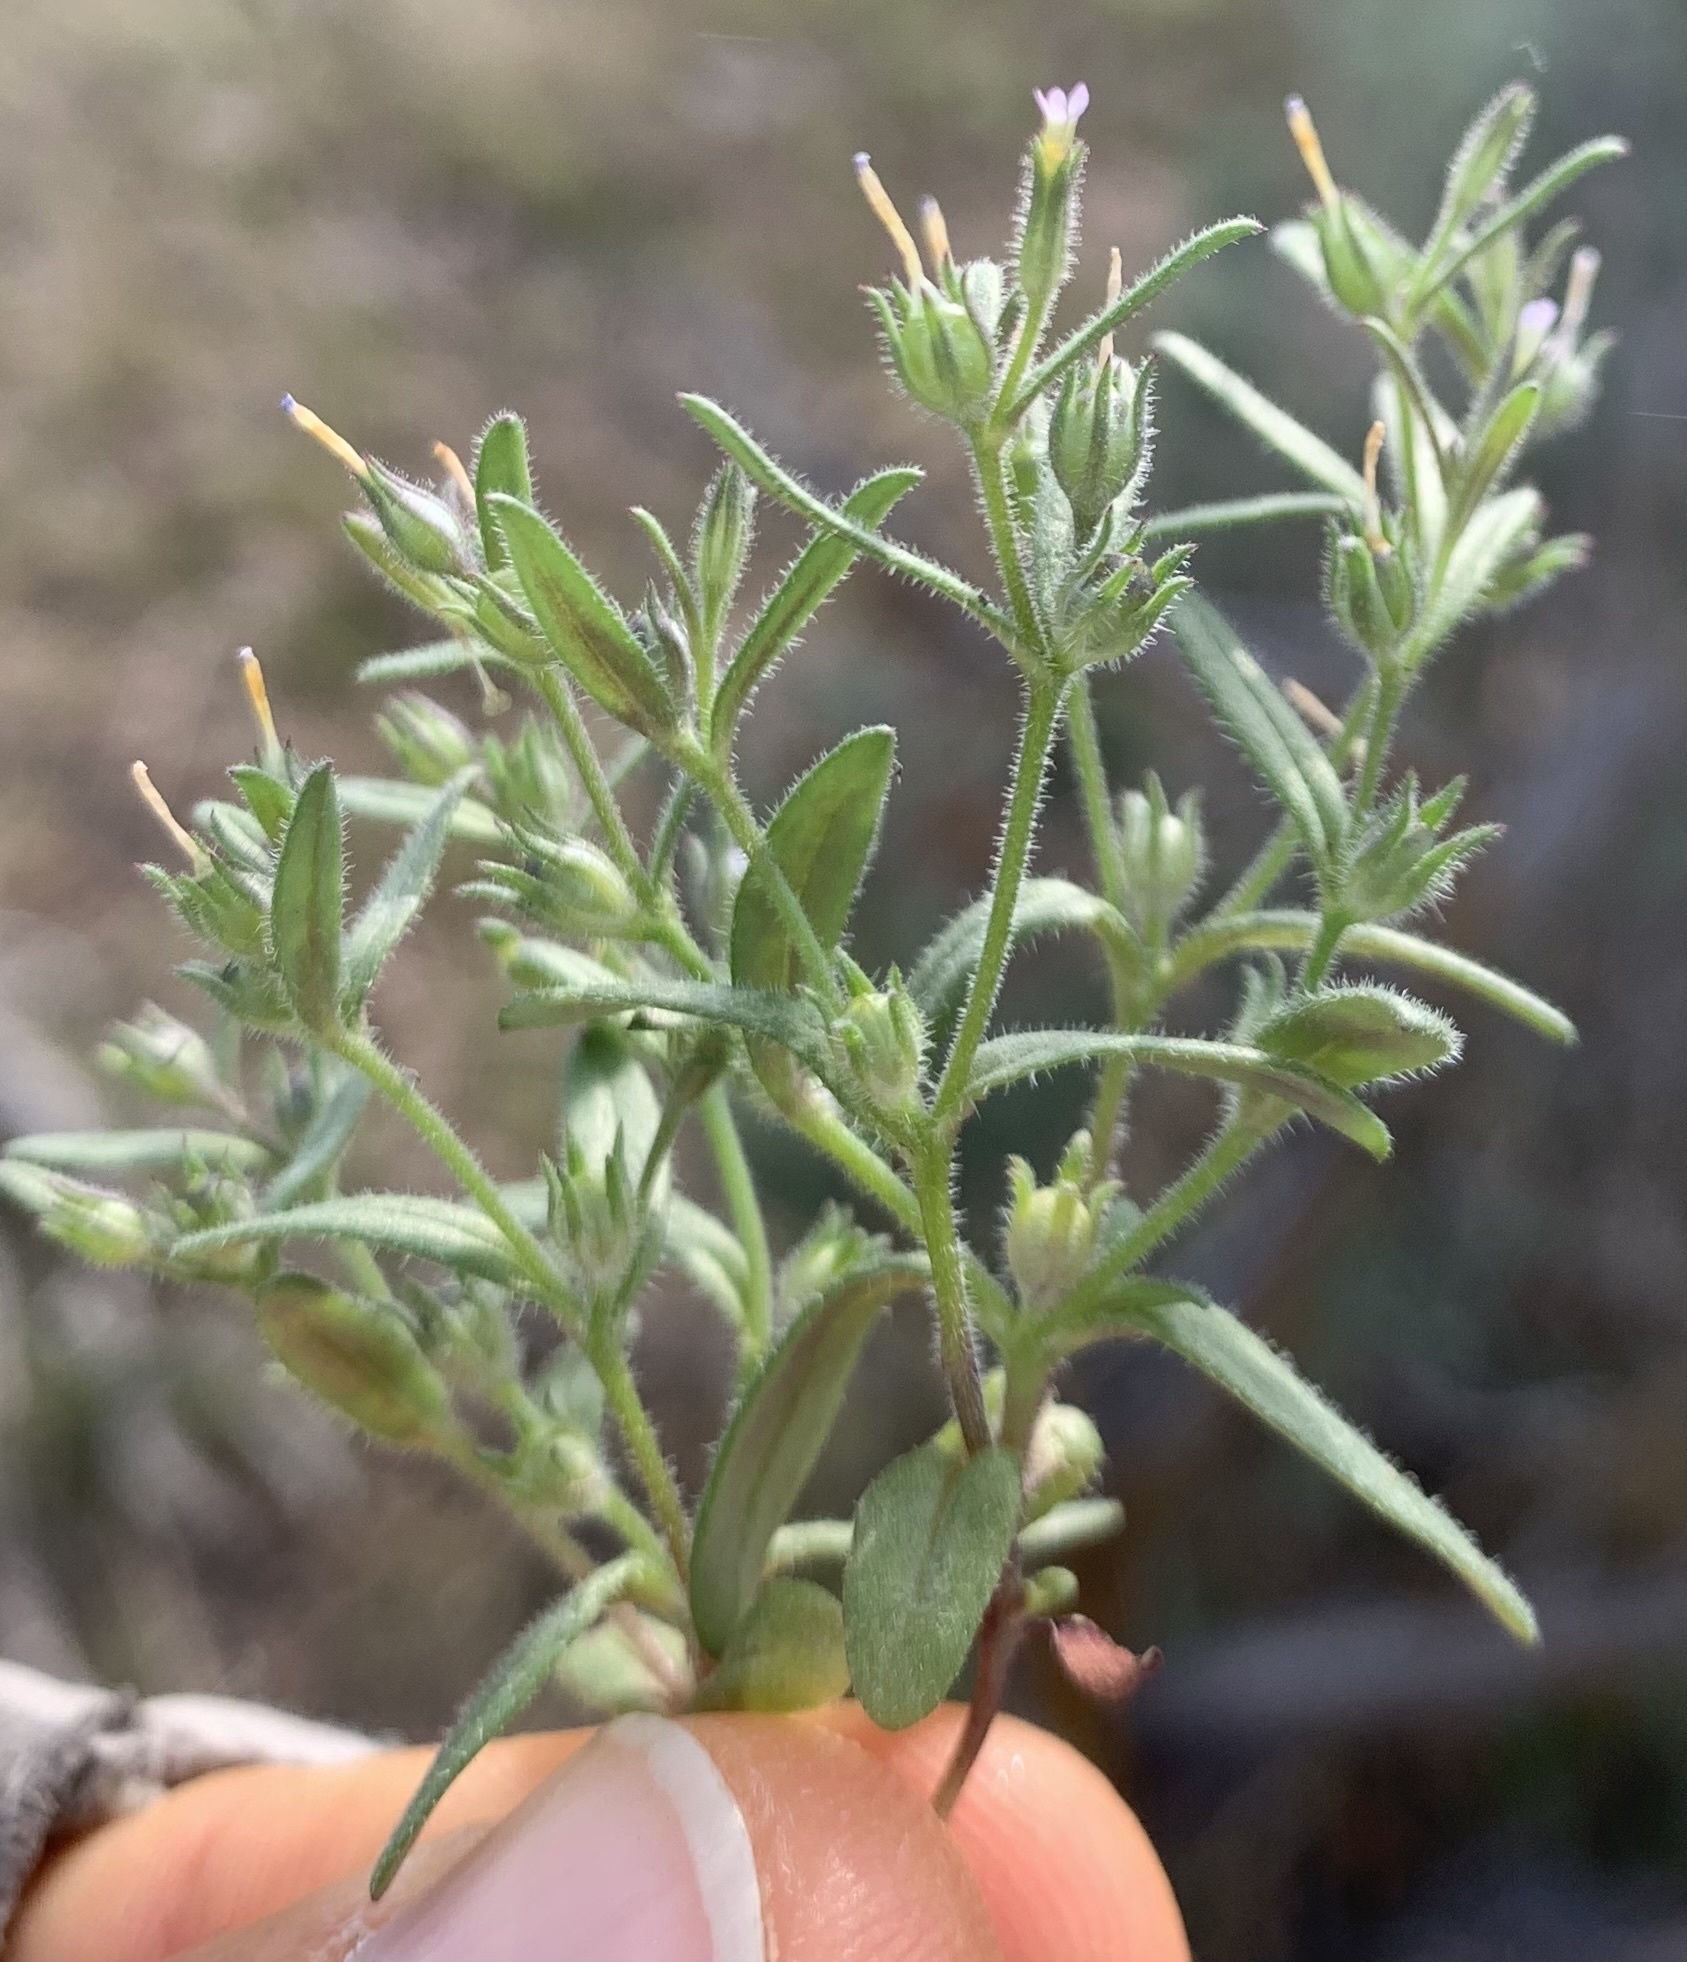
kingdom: Plantae
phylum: Tracheophyta
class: Magnoliopsida
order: Ericales
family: Polemoniaceae
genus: Phlox
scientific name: Phlox gracilis
